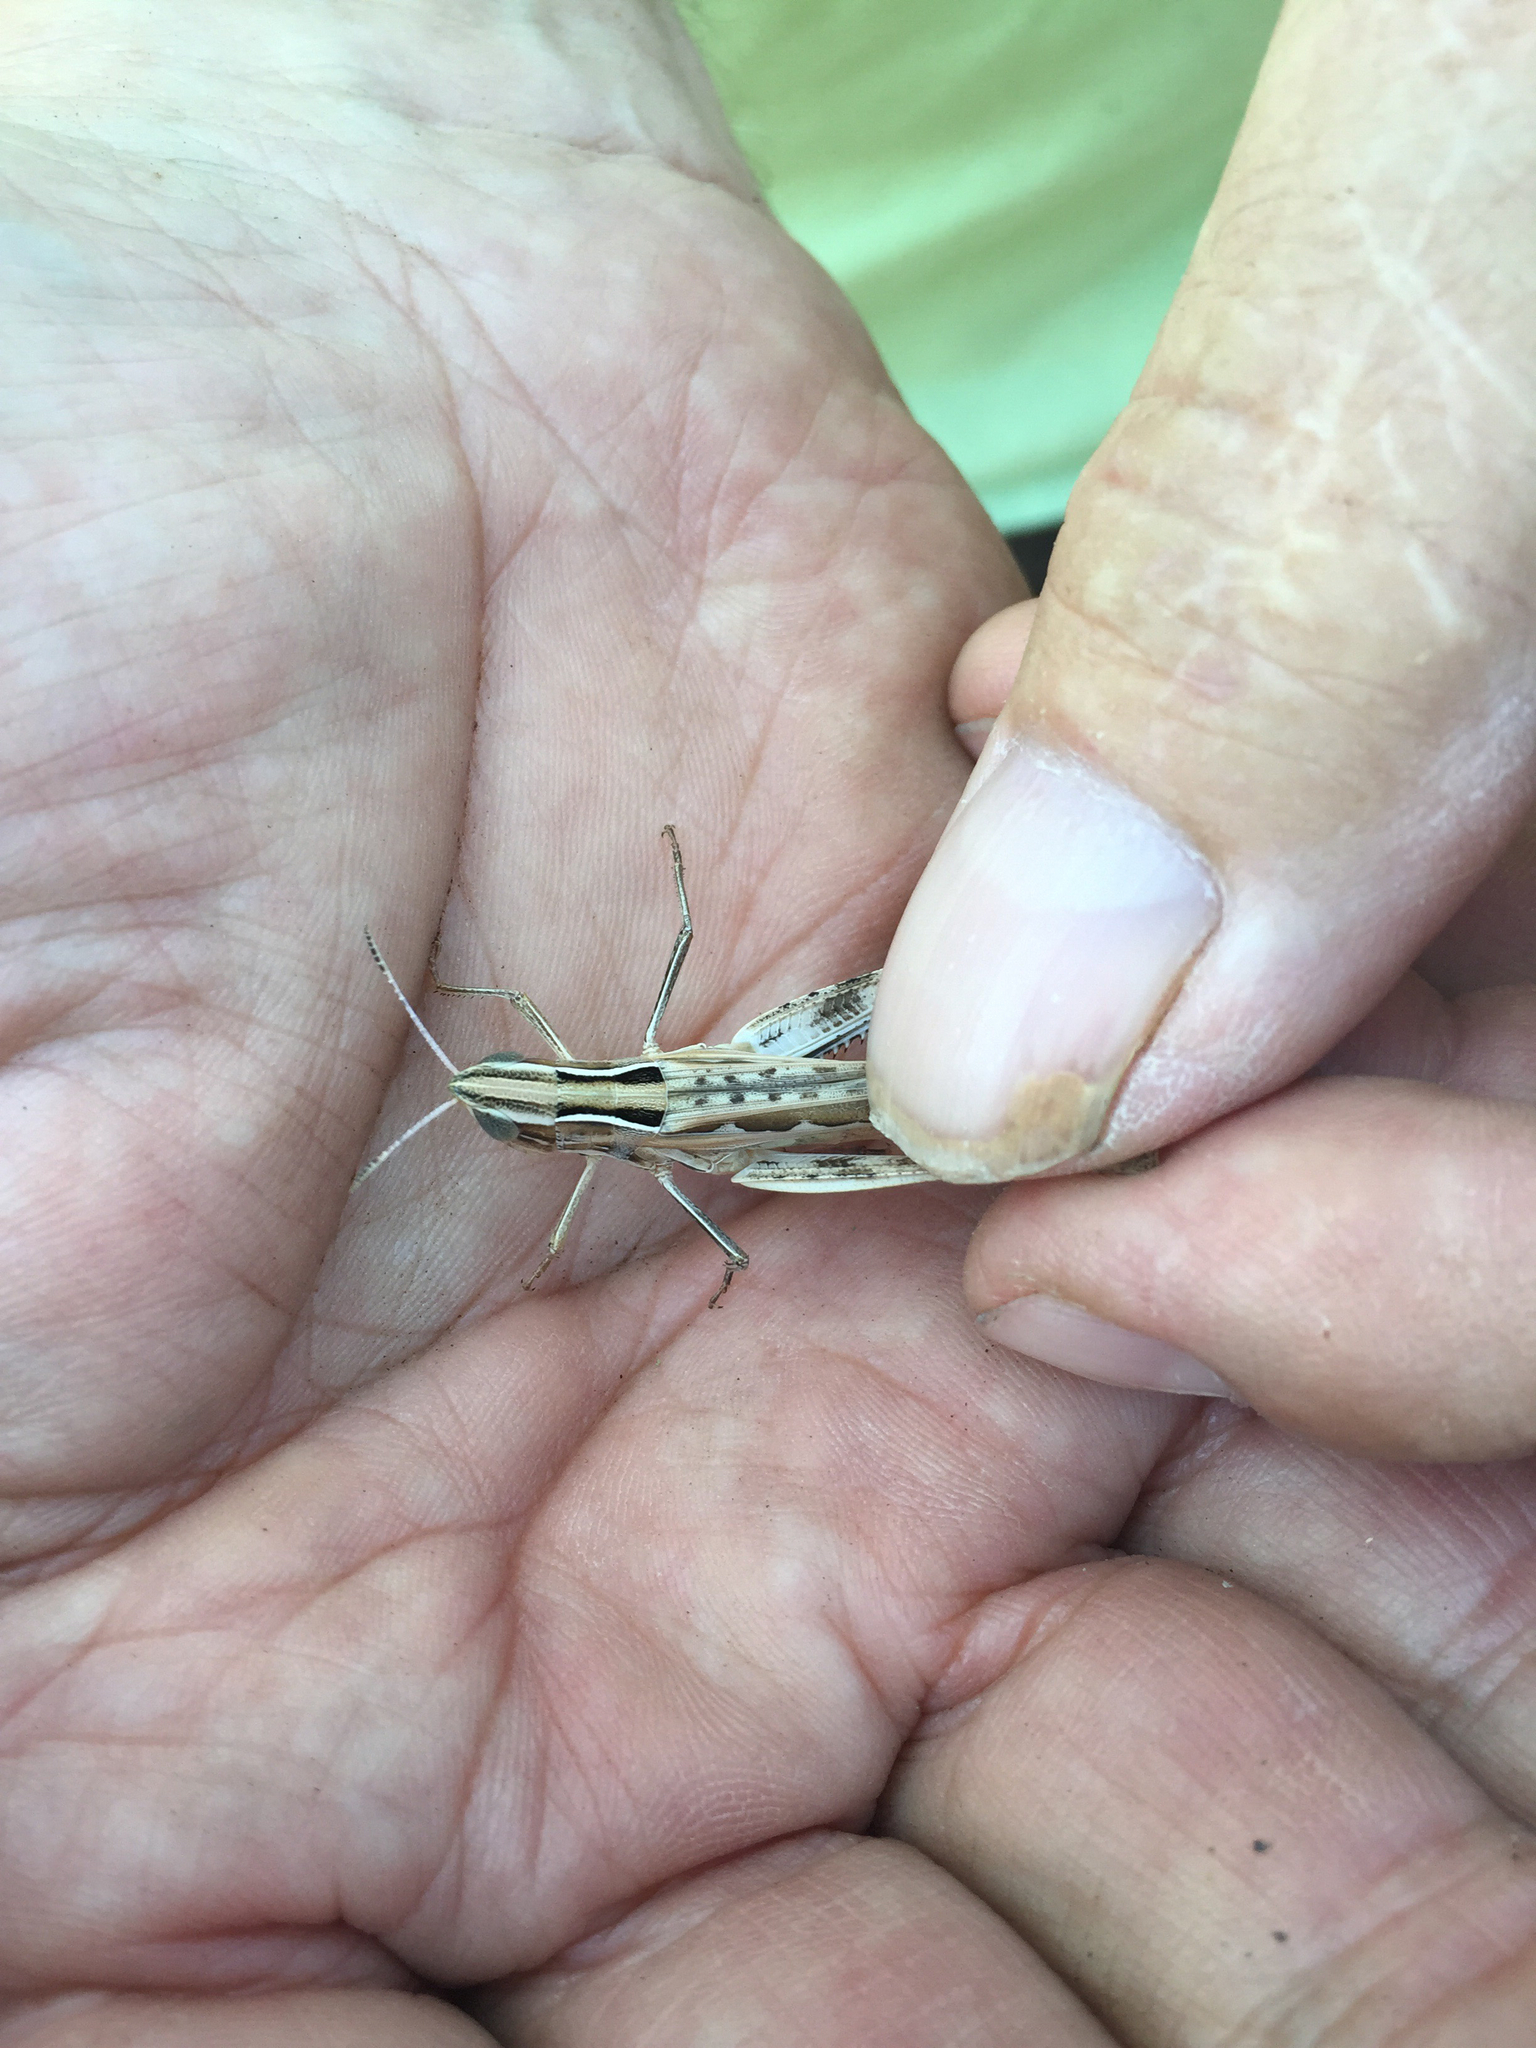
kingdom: Animalia
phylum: Arthropoda
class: Insecta
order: Orthoptera
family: Acrididae
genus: Syrbula
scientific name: Syrbula admirabilis
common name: Handsome grasshopper
